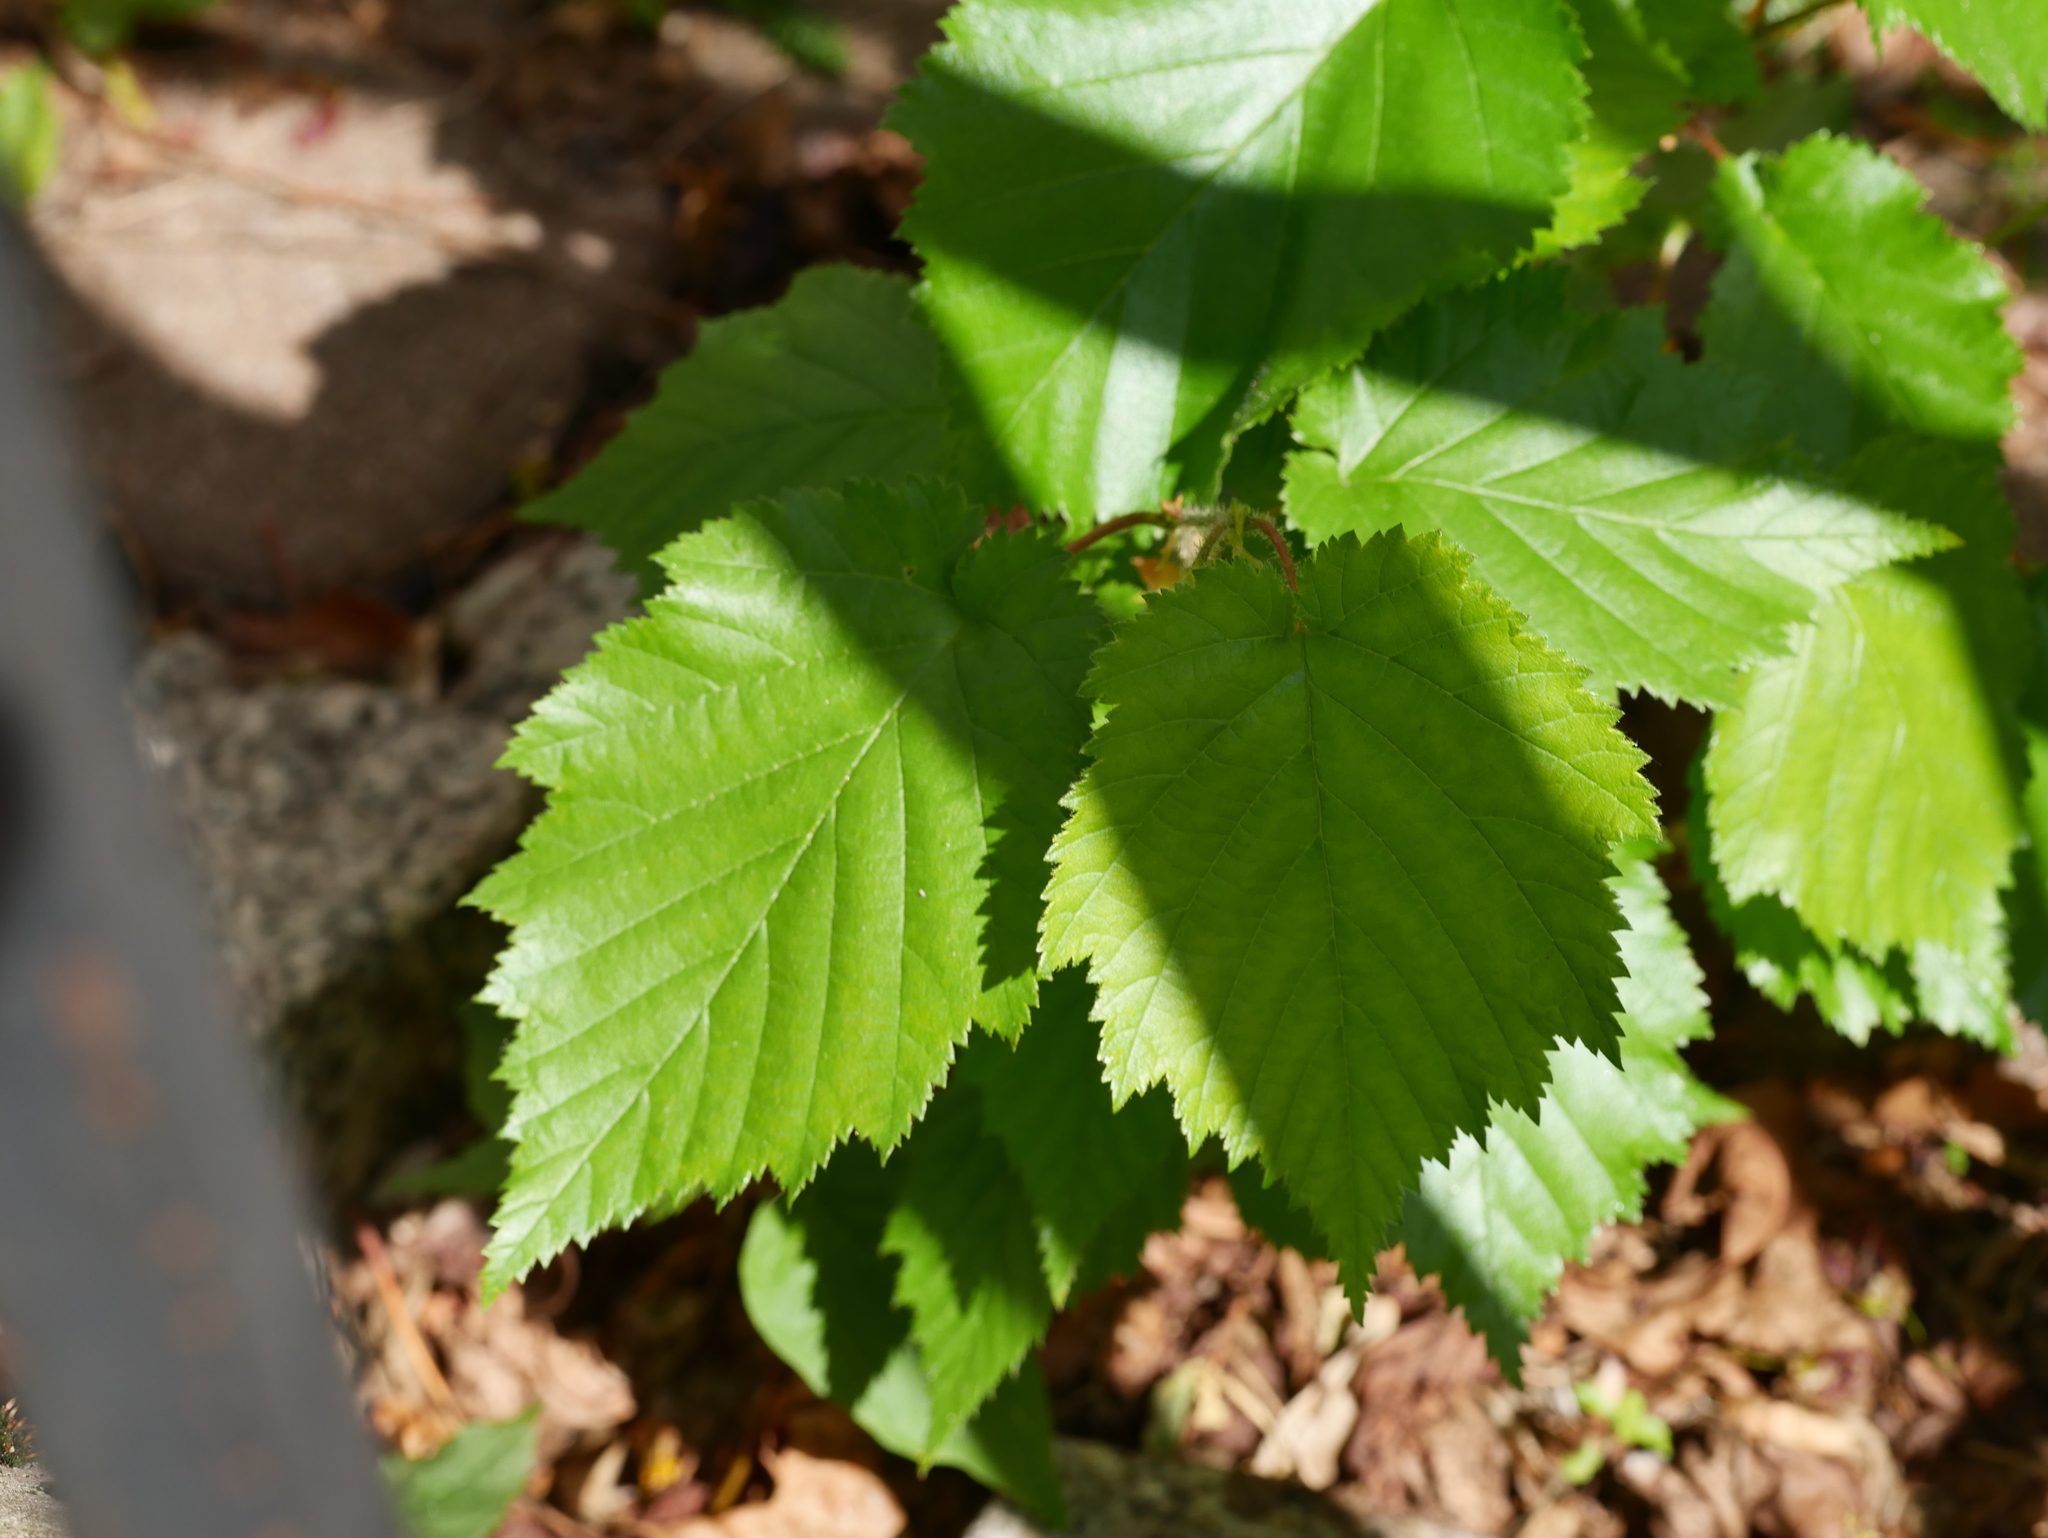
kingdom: Plantae
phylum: Tracheophyta
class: Magnoliopsida
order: Fagales
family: Betulaceae
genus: Corylus
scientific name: Corylus avellana
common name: European hazel
